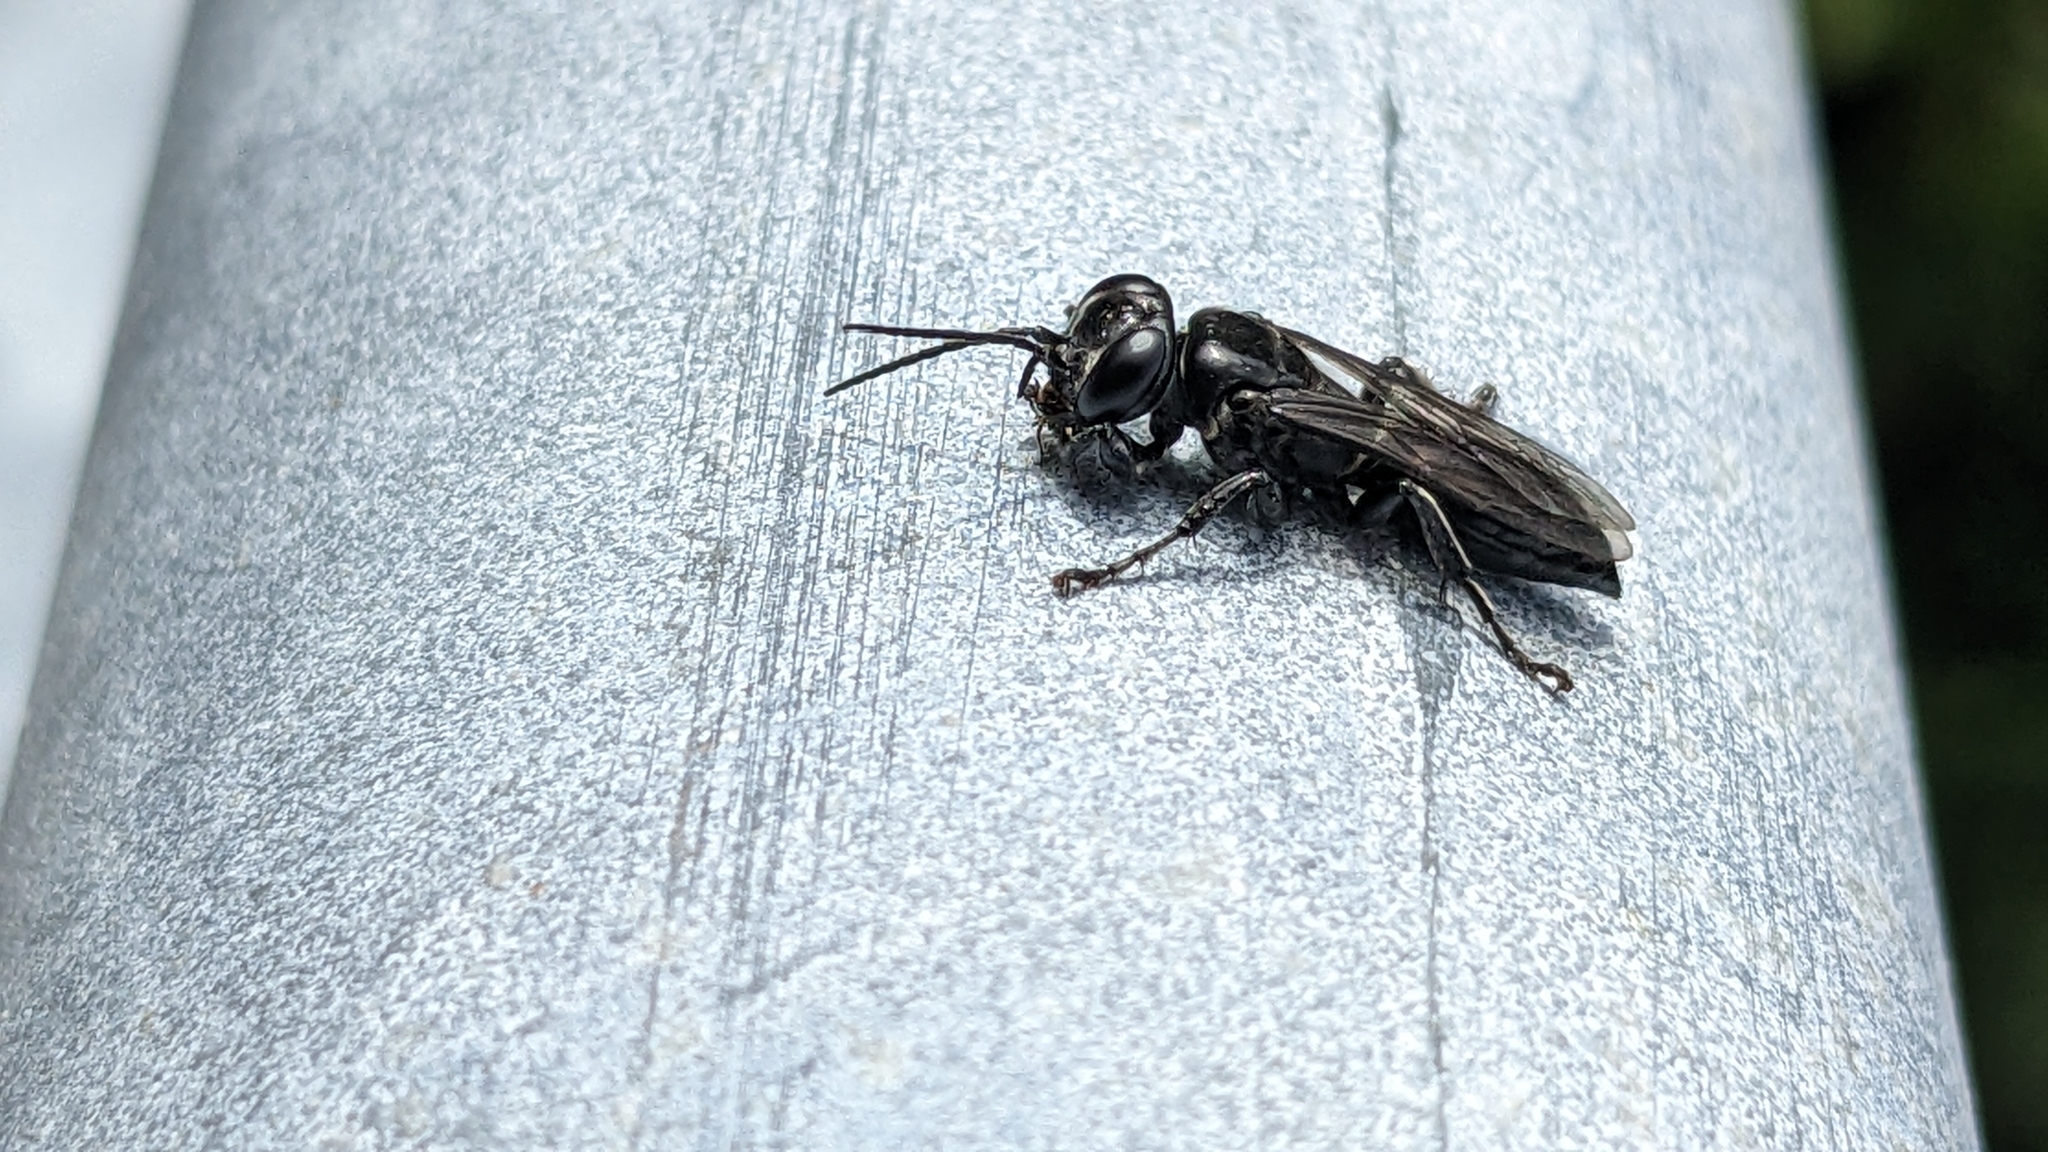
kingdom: Animalia
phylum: Arthropoda
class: Insecta
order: Hymenoptera
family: Crabronidae
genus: Tachysphex
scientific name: Tachysphex nigerrimus
